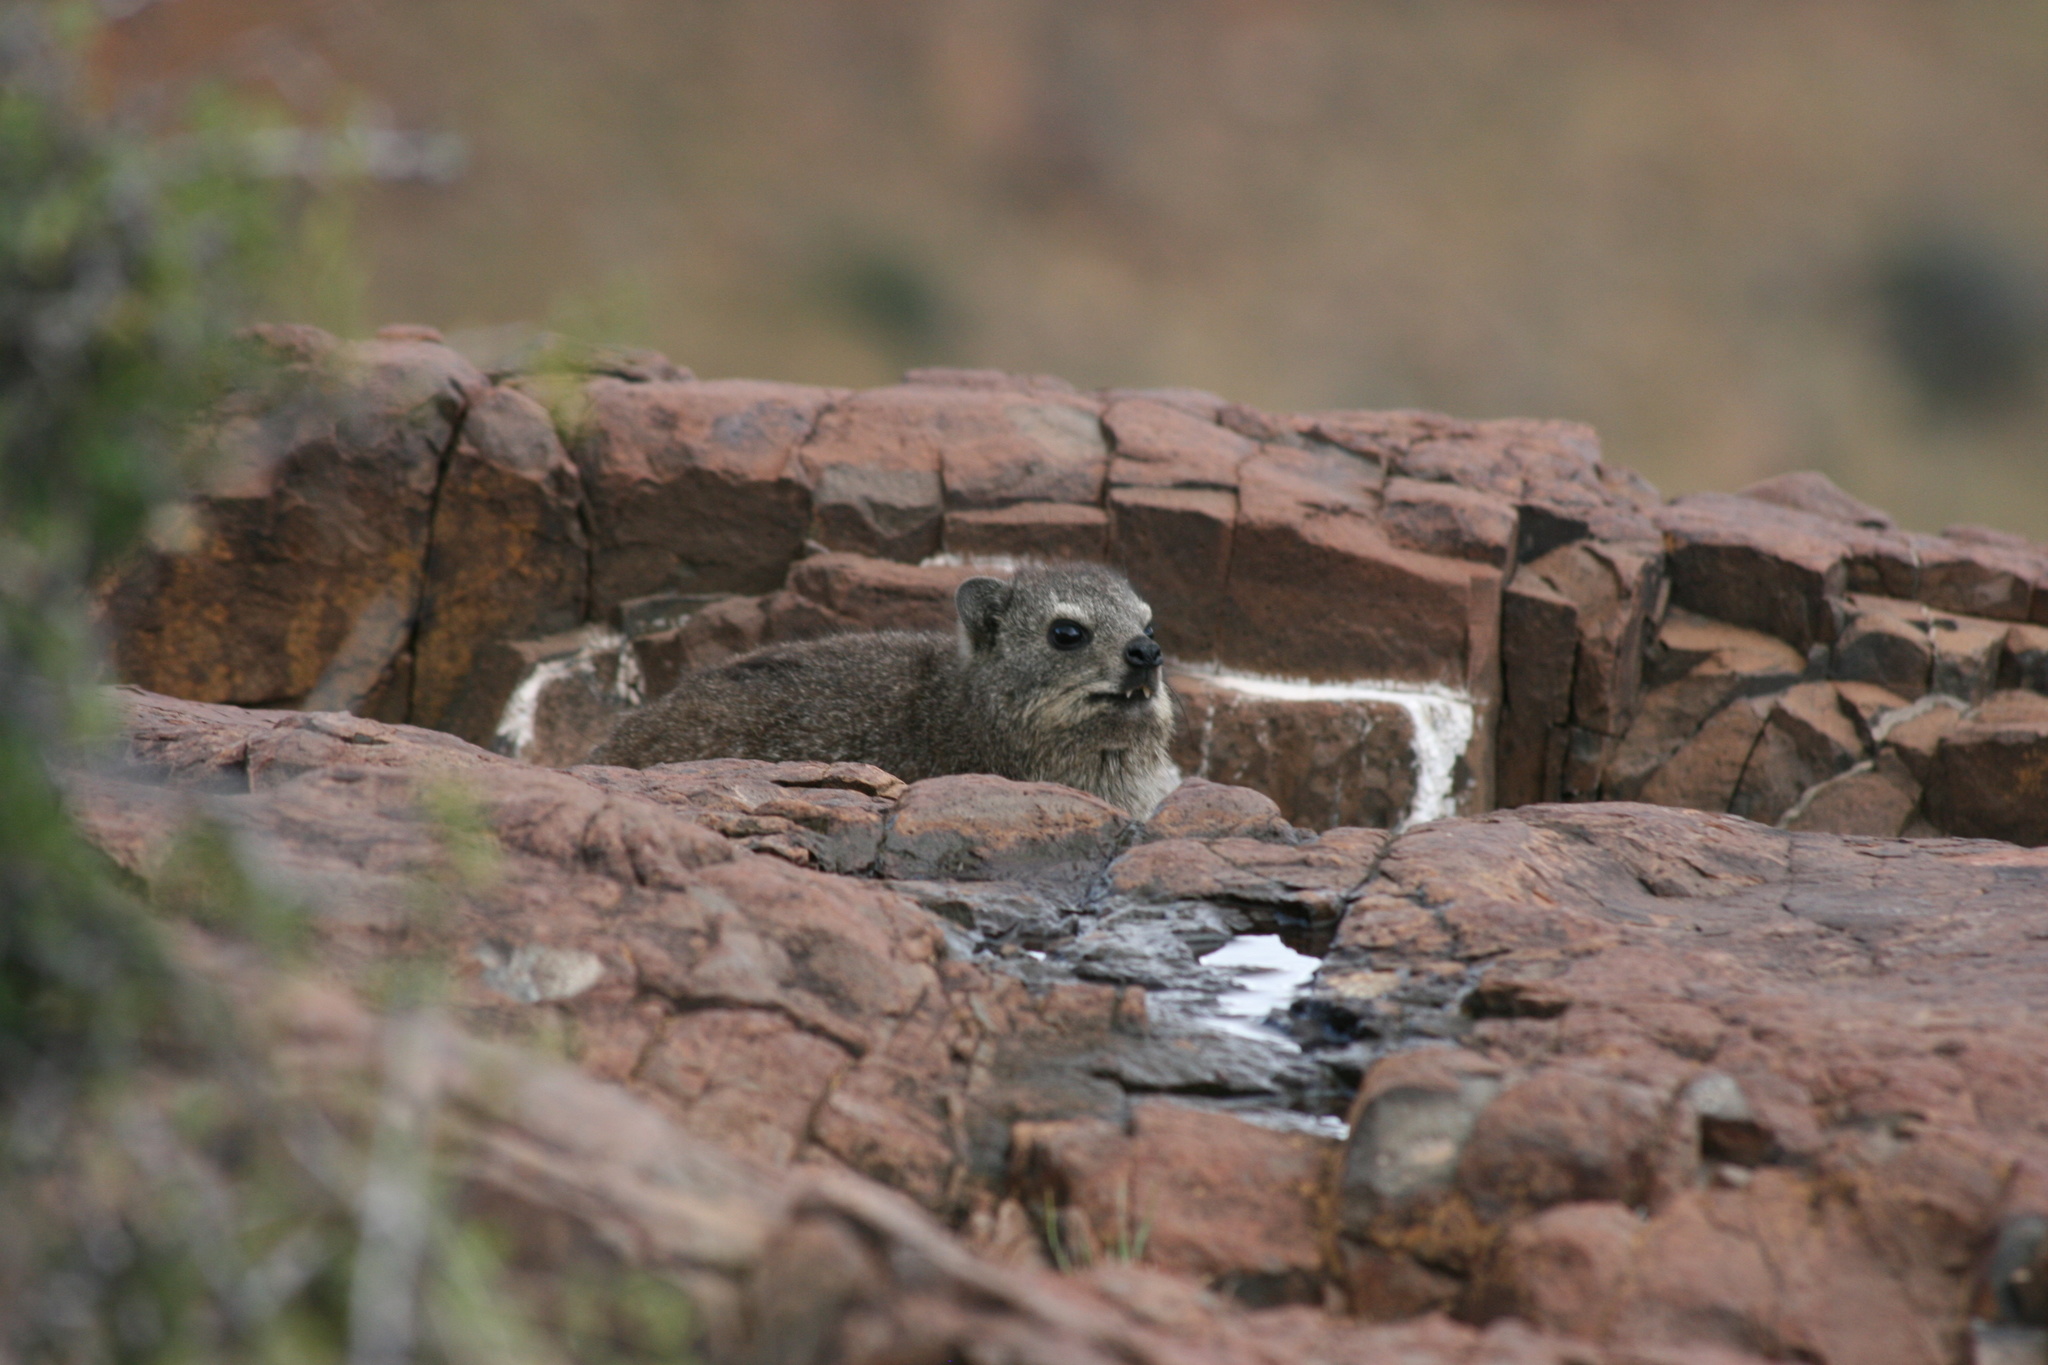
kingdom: Animalia
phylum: Chordata
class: Mammalia
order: Hyracoidea
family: Procaviidae
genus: Procavia
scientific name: Procavia capensis
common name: Rock hyrax
